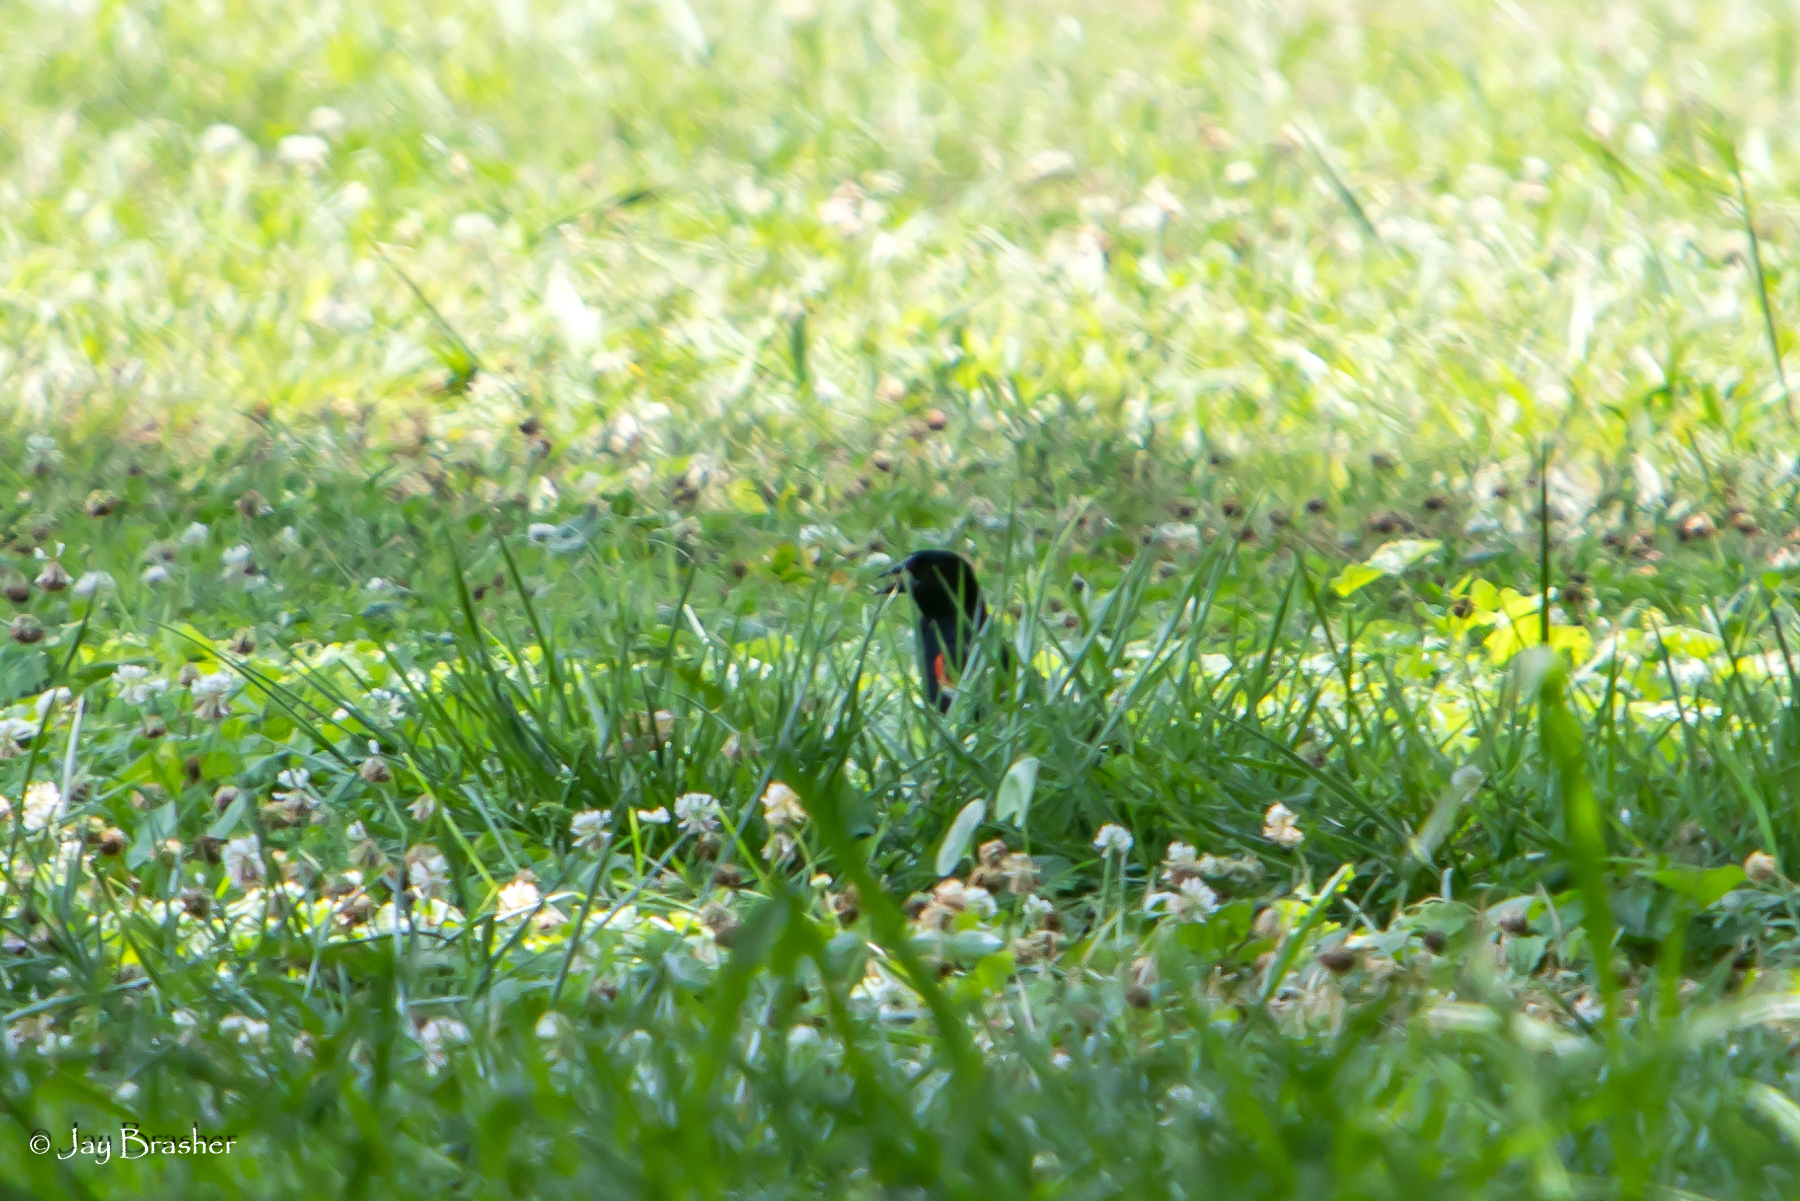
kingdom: Animalia
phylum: Chordata
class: Aves
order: Passeriformes
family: Icteridae
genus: Agelaius
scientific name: Agelaius phoeniceus
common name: Red-winged blackbird
